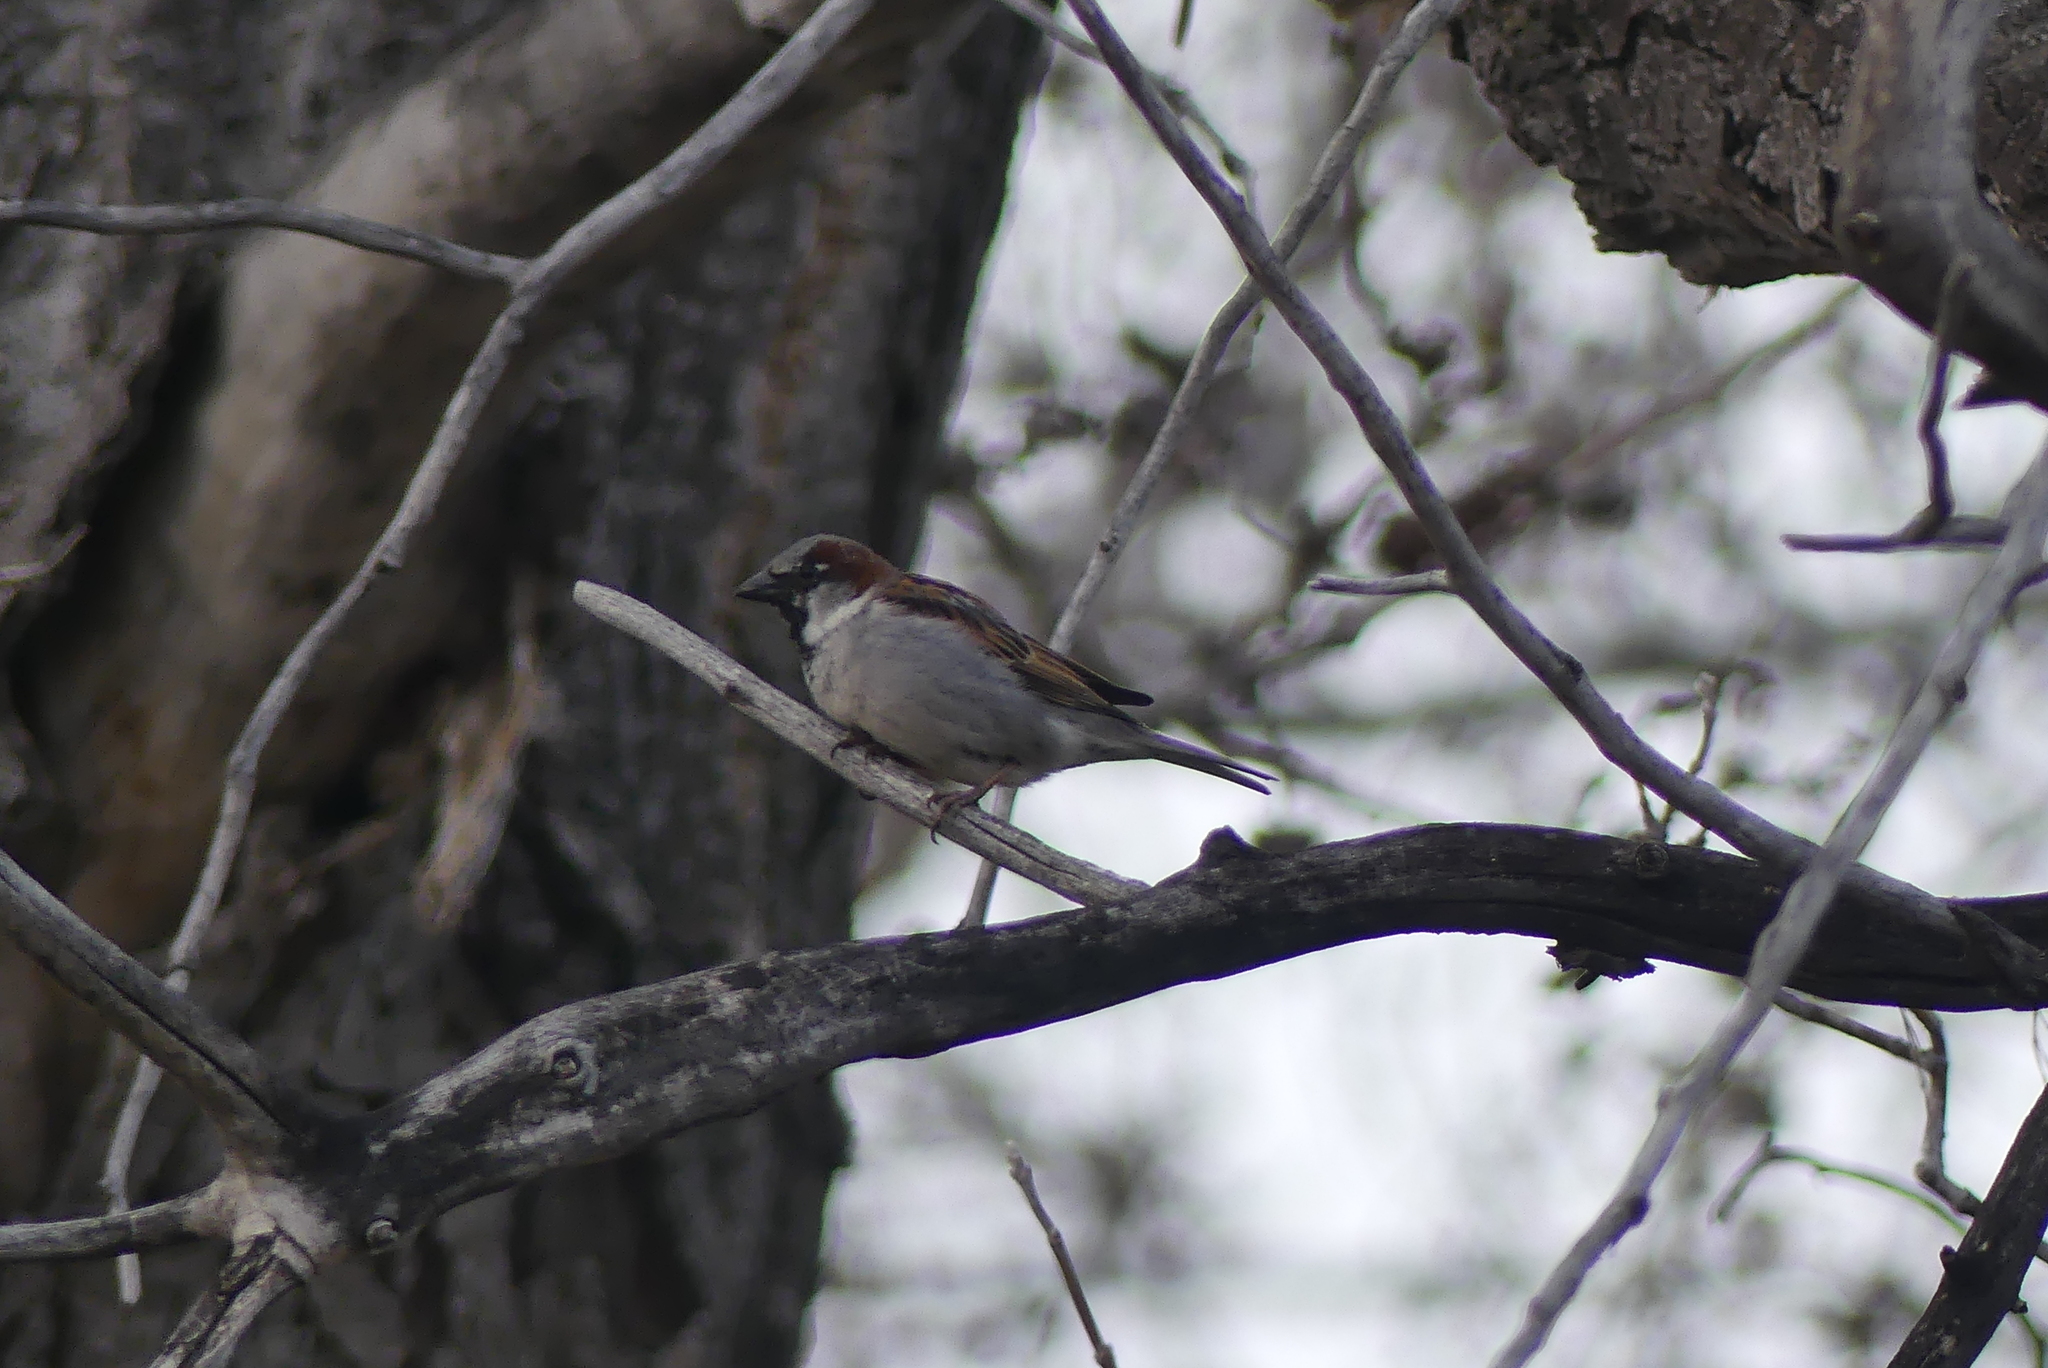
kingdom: Animalia
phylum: Chordata
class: Aves
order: Passeriformes
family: Passeridae
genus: Passer
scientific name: Passer domesticus
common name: House sparrow
